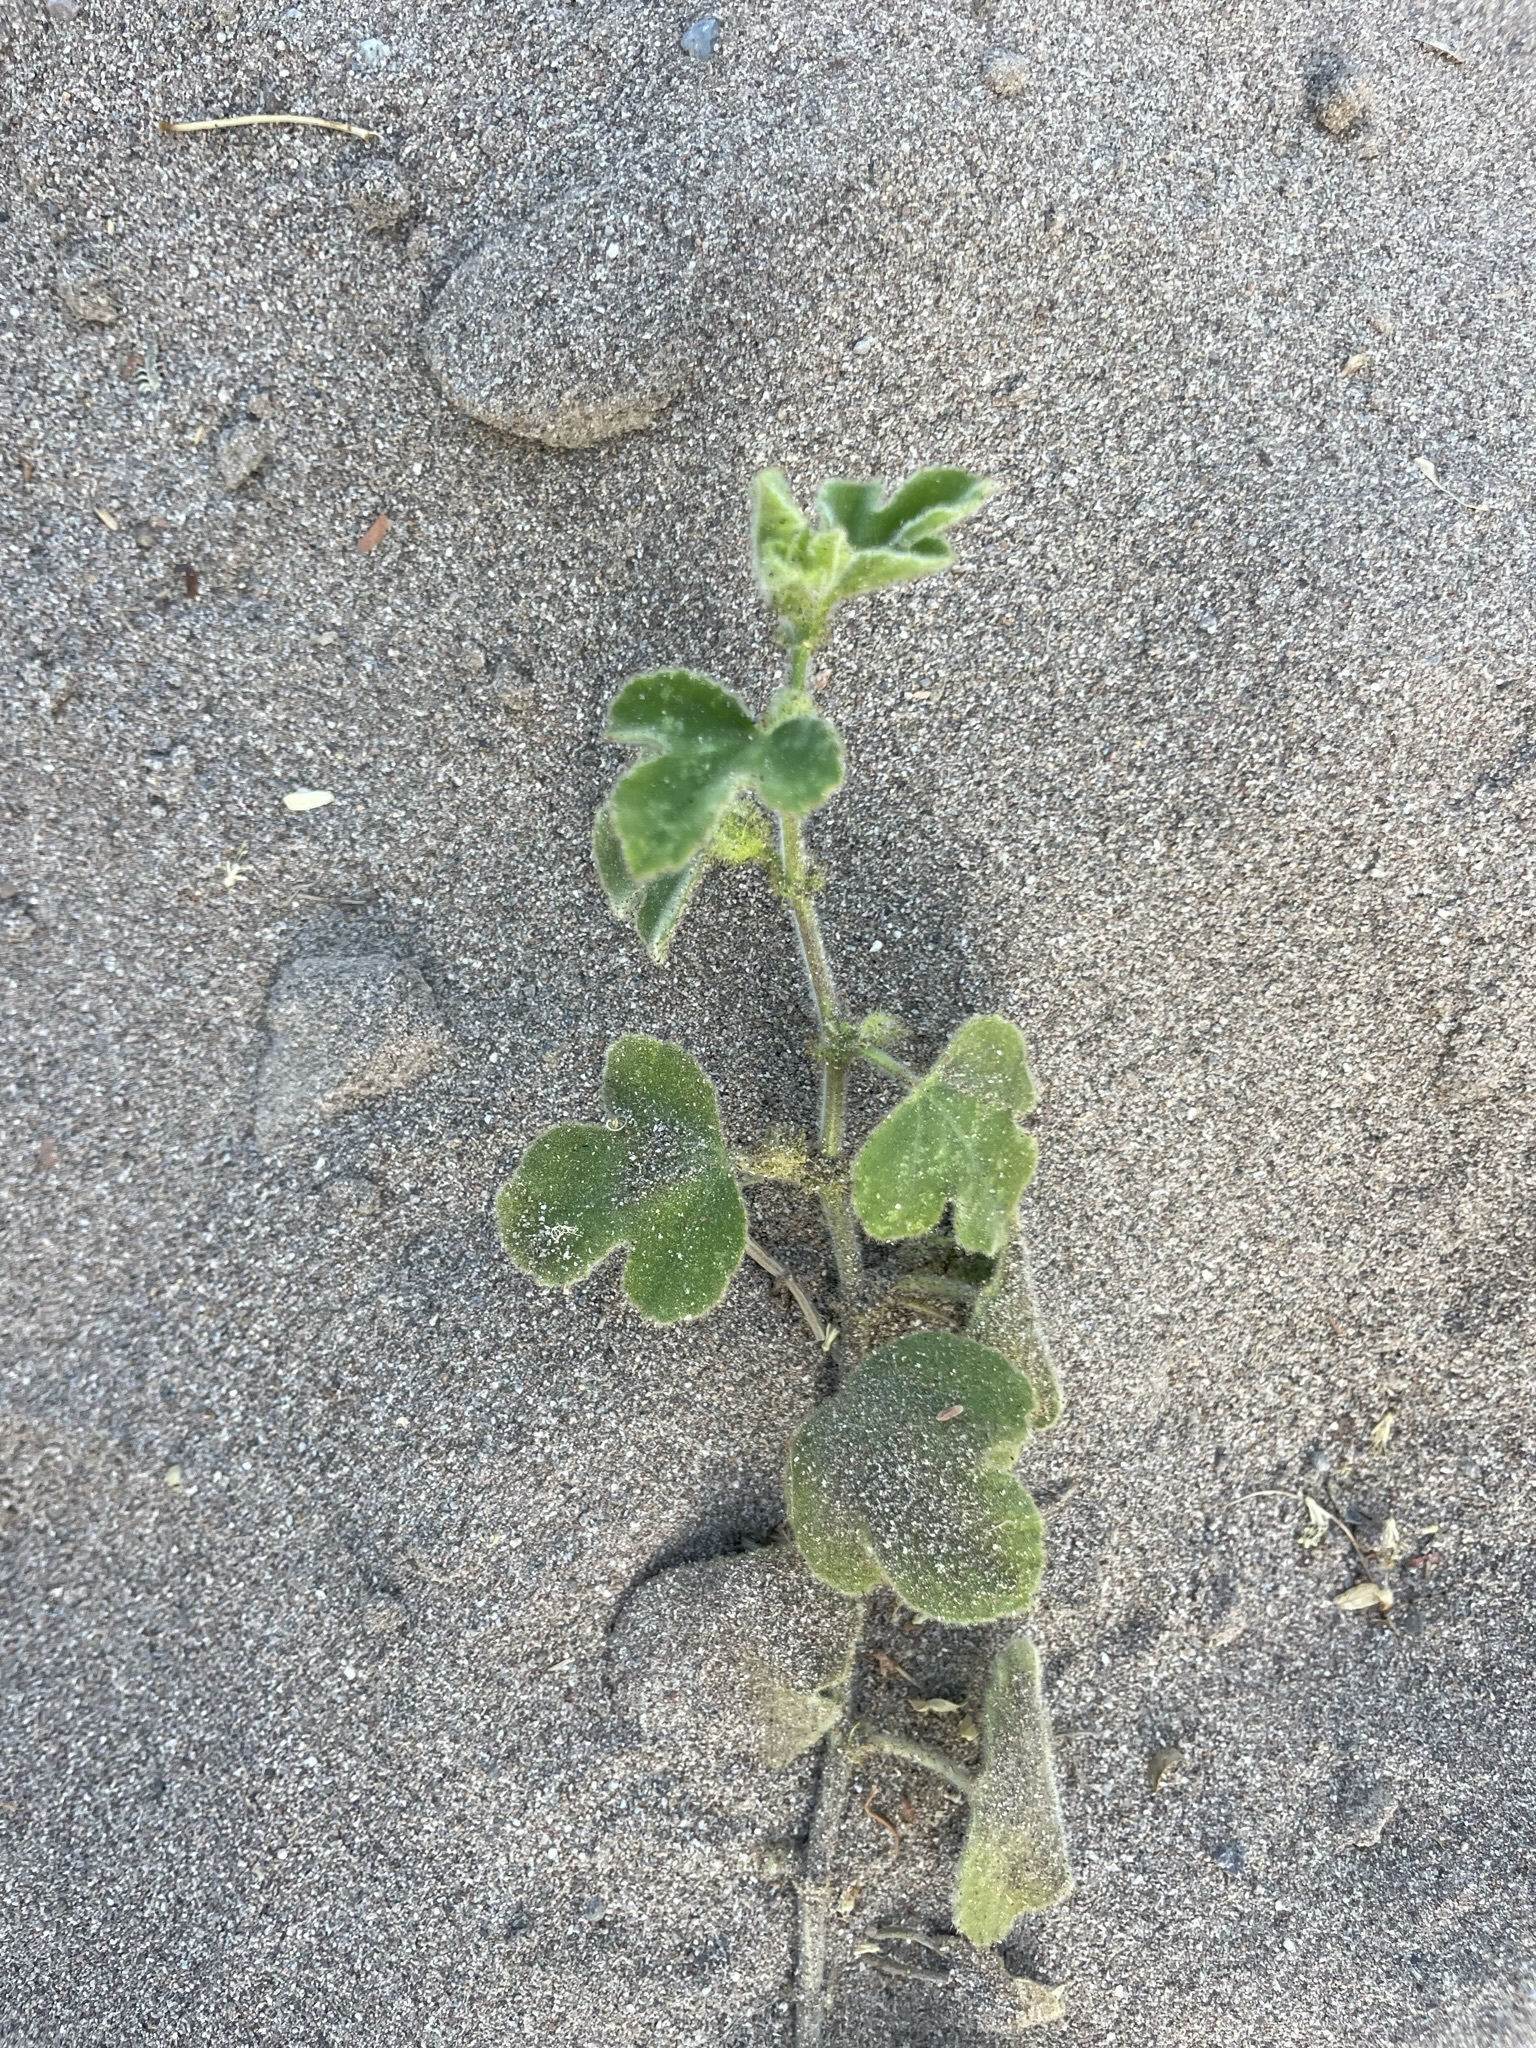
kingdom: Plantae
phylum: Tracheophyta
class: Magnoliopsida
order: Malpighiales
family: Passifloraceae
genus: Passiflora
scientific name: Passiflora arida
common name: Desert passionflower
